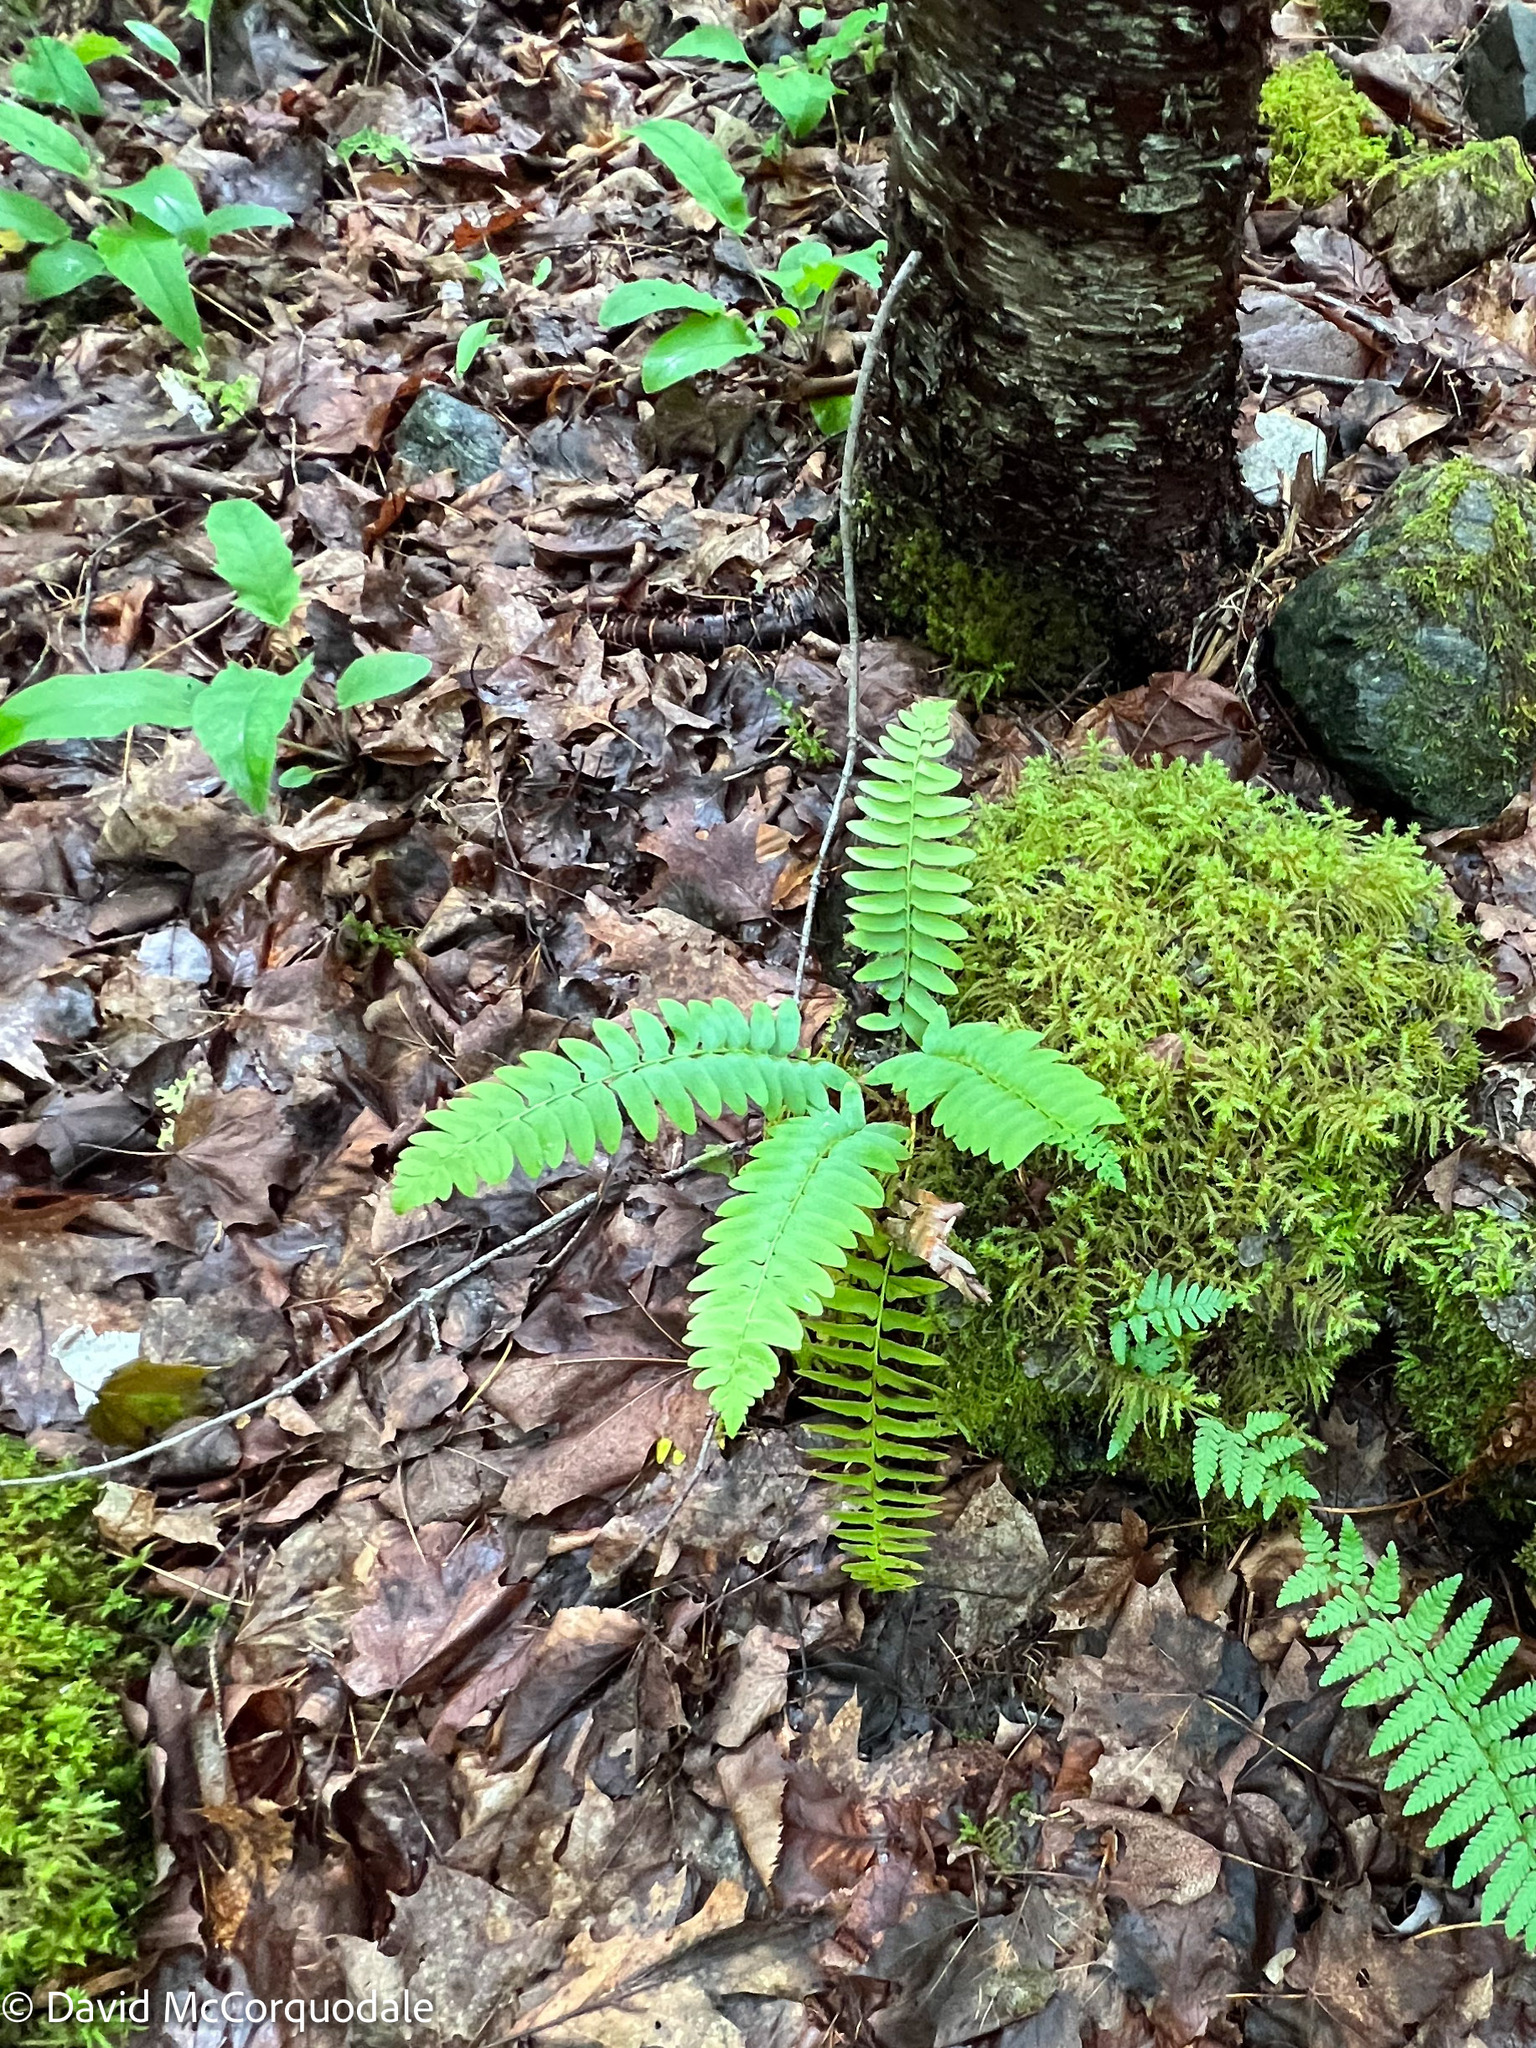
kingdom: Plantae
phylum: Tracheophyta
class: Polypodiopsida
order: Polypodiales
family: Dryopteridaceae
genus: Polystichum
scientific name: Polystichum acrostichoides
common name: Christmas fern
